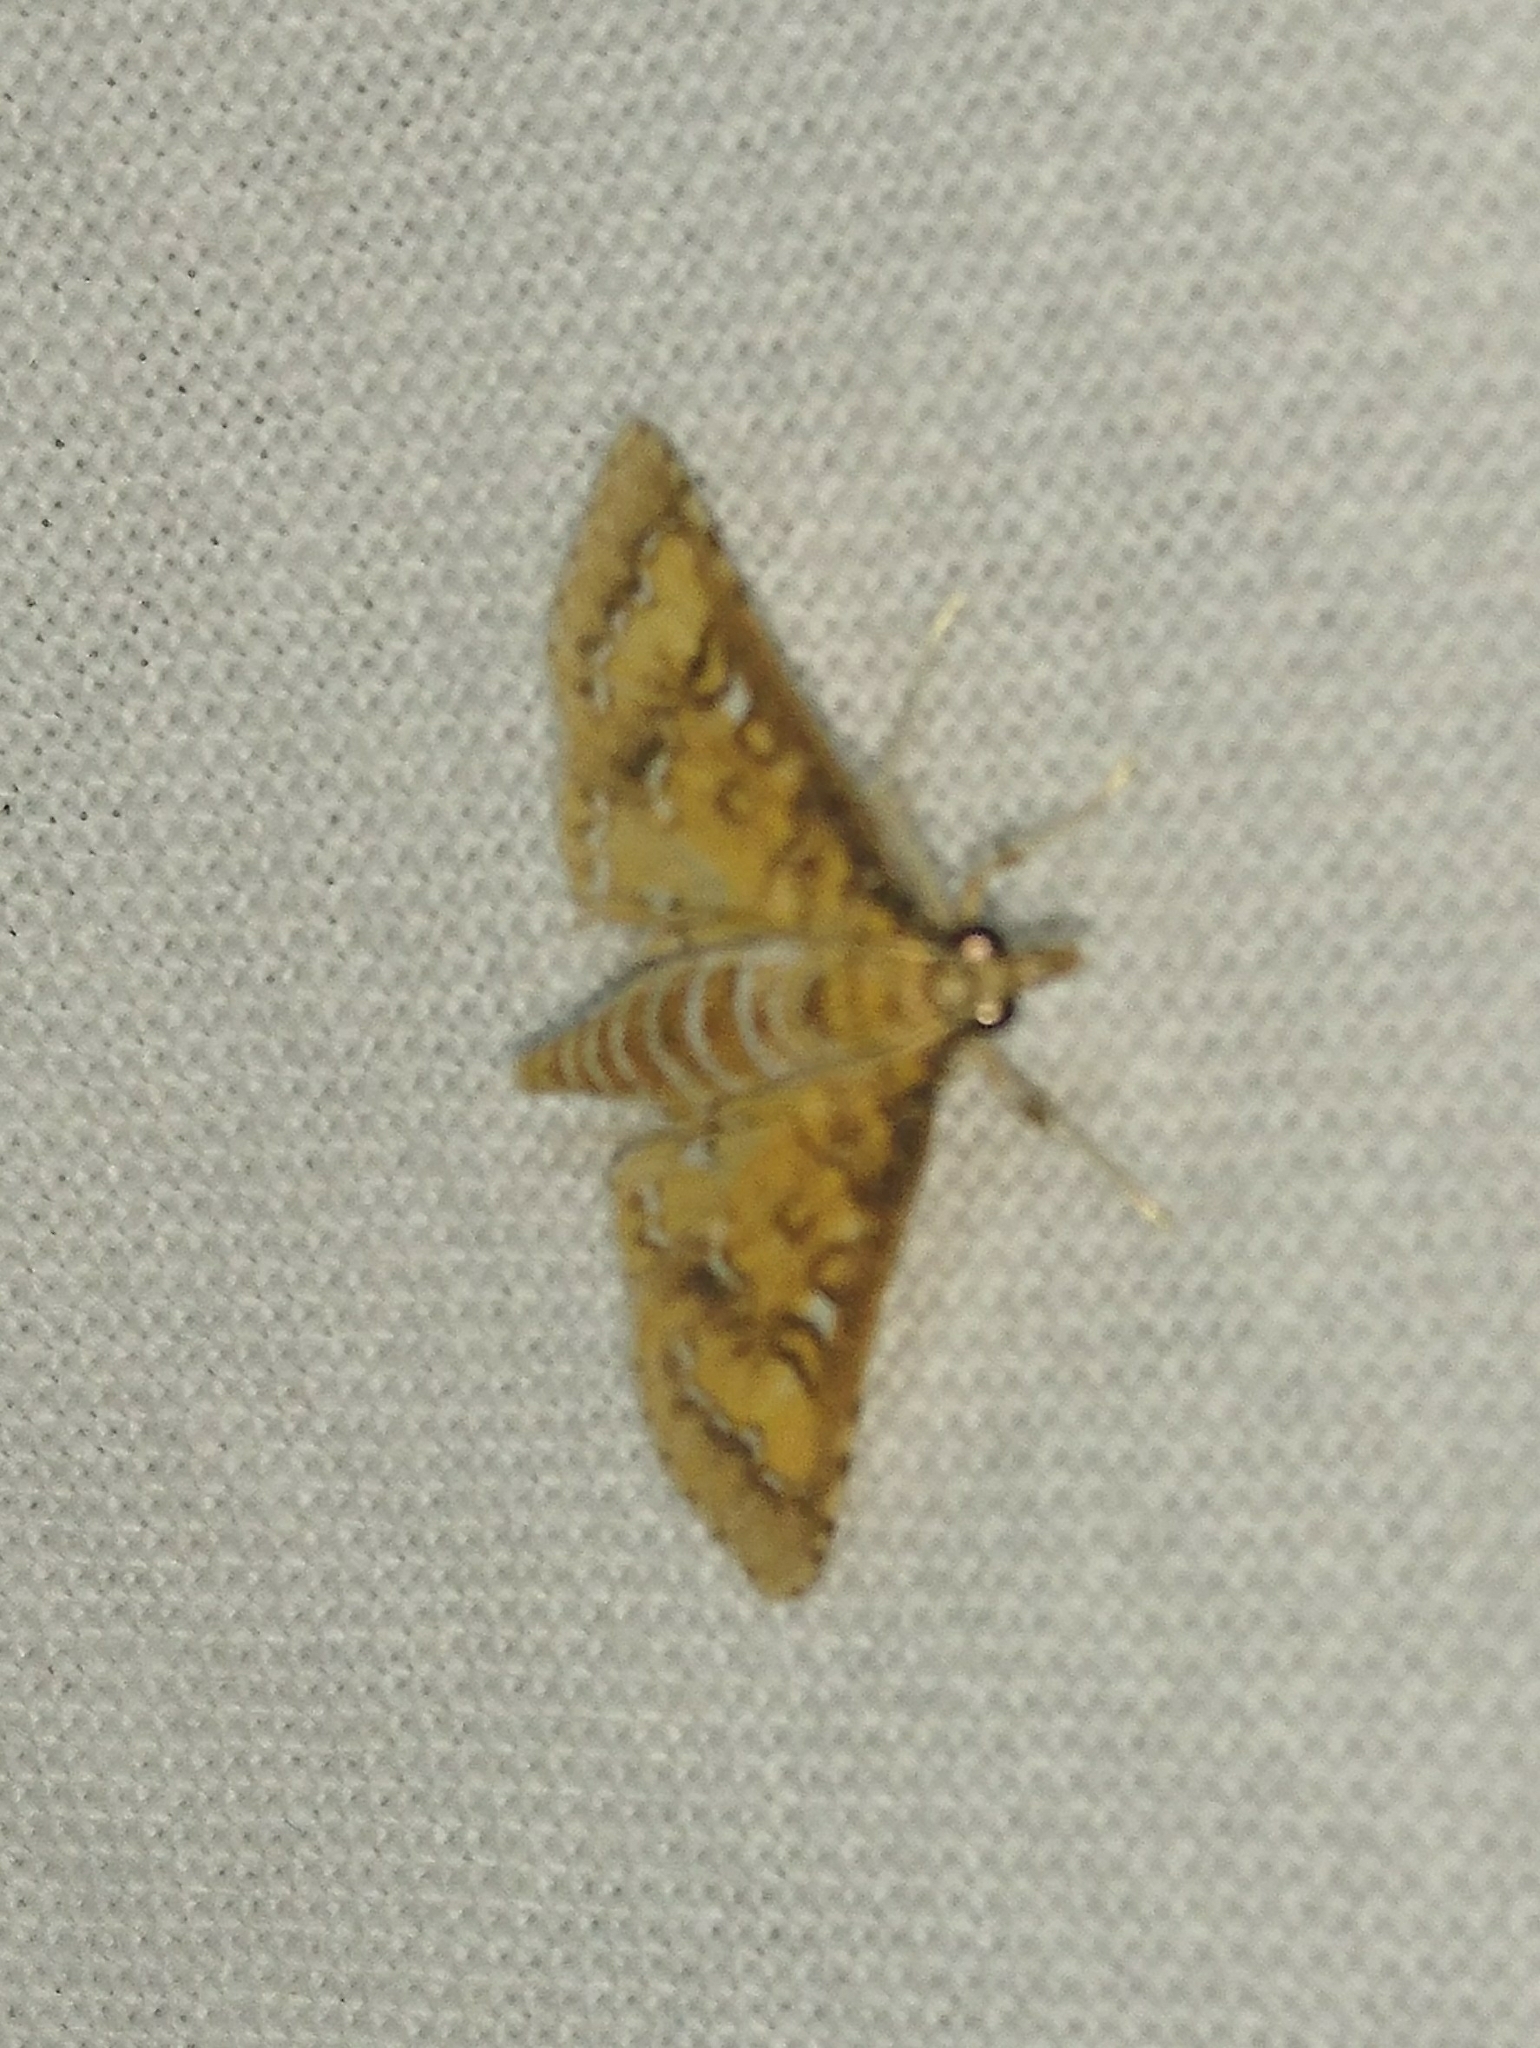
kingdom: Animalia
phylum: Arthropoda
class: Insecta
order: Lepidoptera
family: Crambidae
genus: Niphograpta
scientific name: Niphograpta albiguttalis
